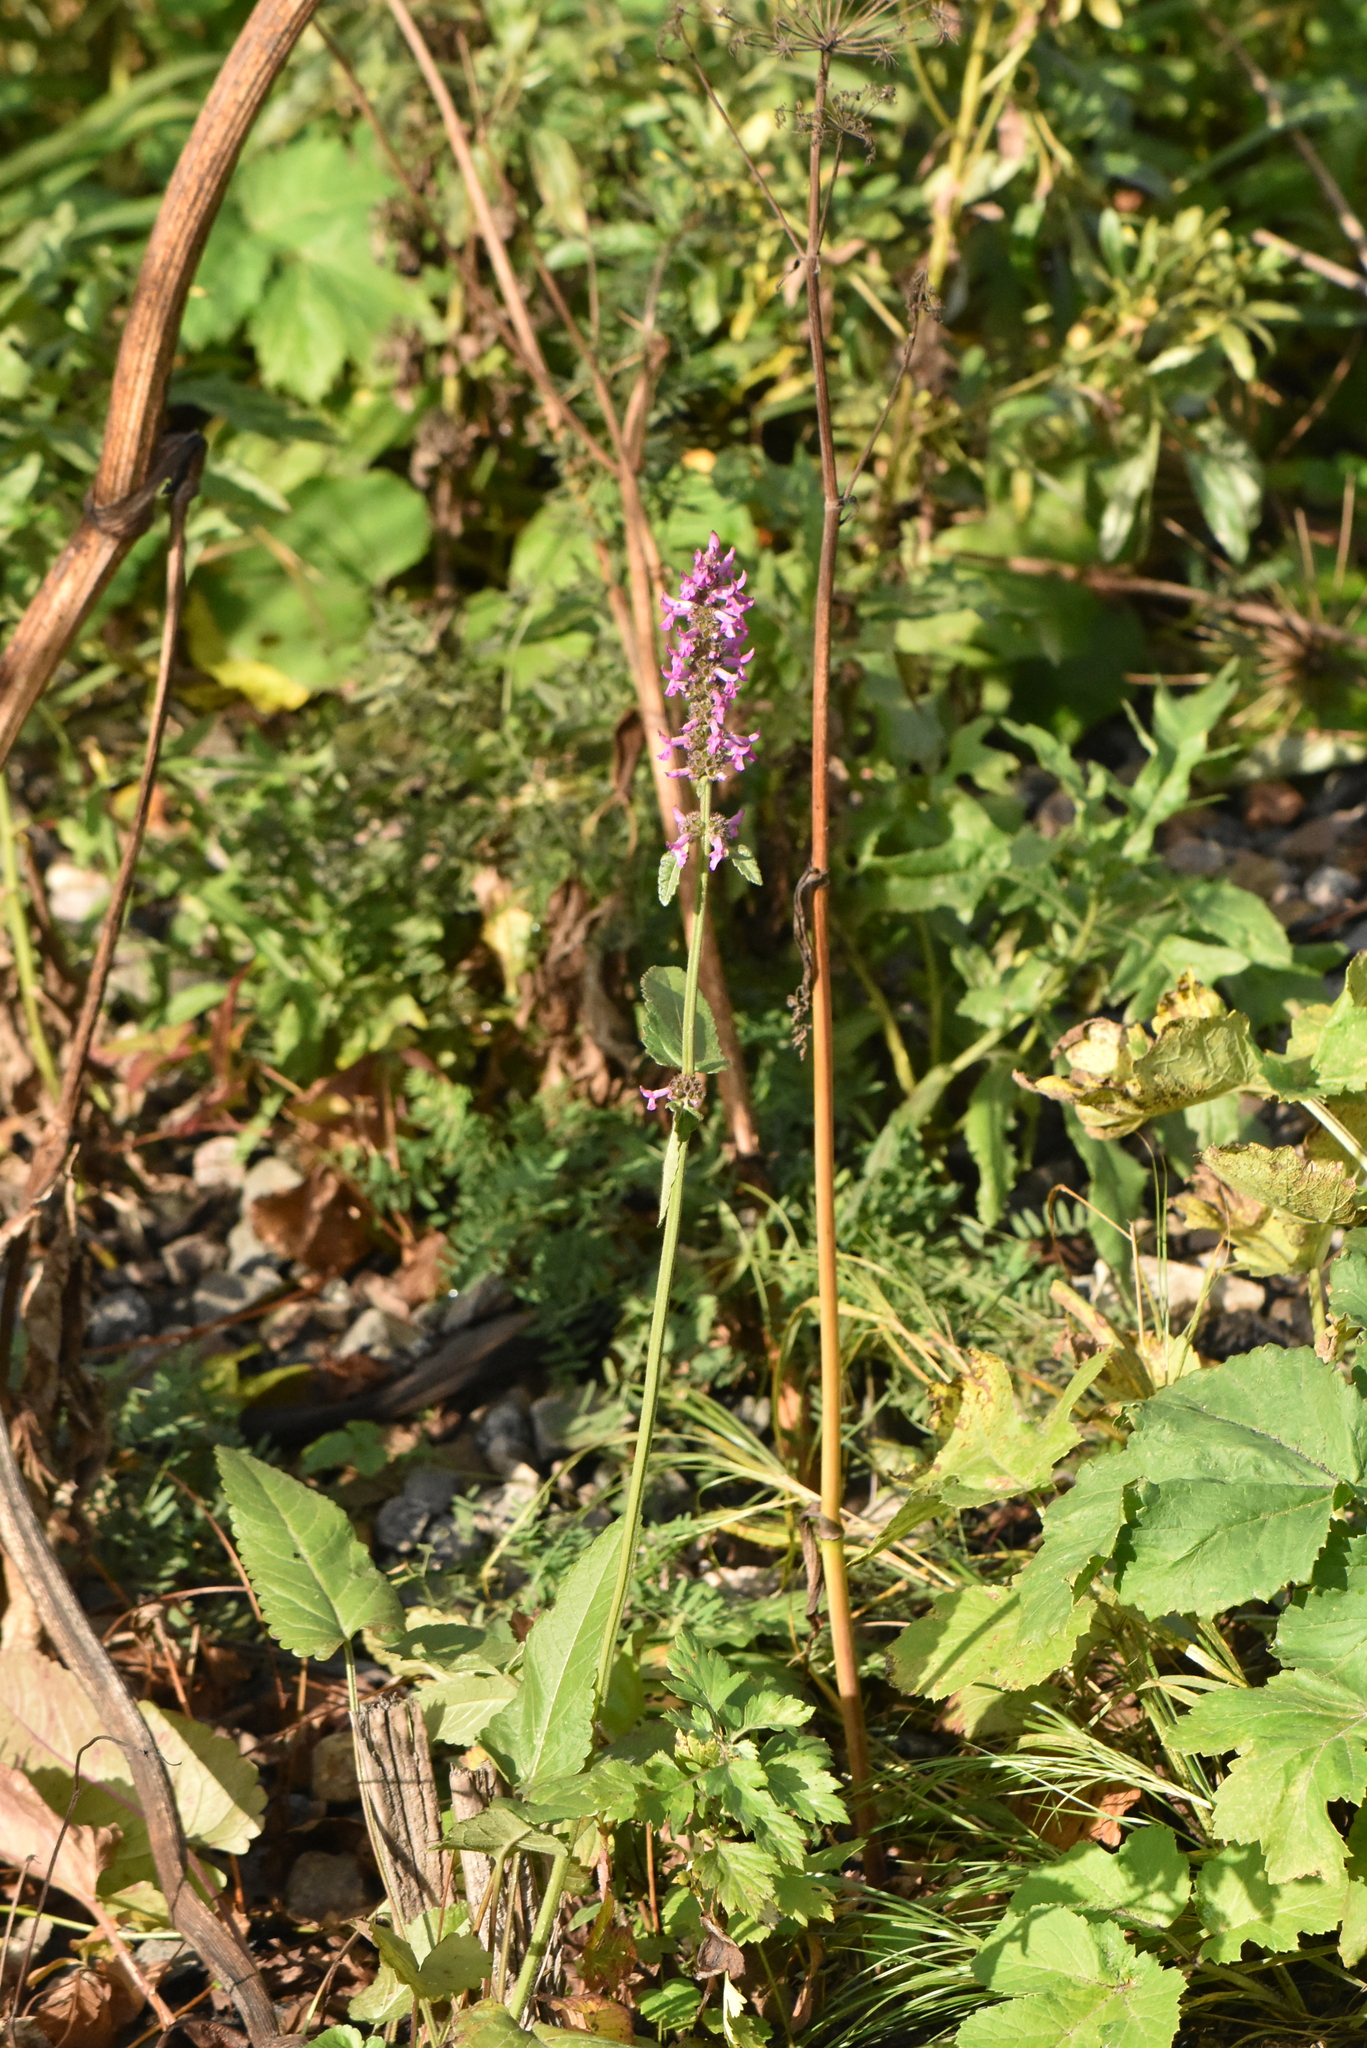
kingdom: Plantae
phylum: Tracheophyta
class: Magnoliopsida
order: Lamiales
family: Lamiaceae
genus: Betonica
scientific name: Betonica officinalis
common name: Bishop's-wort
